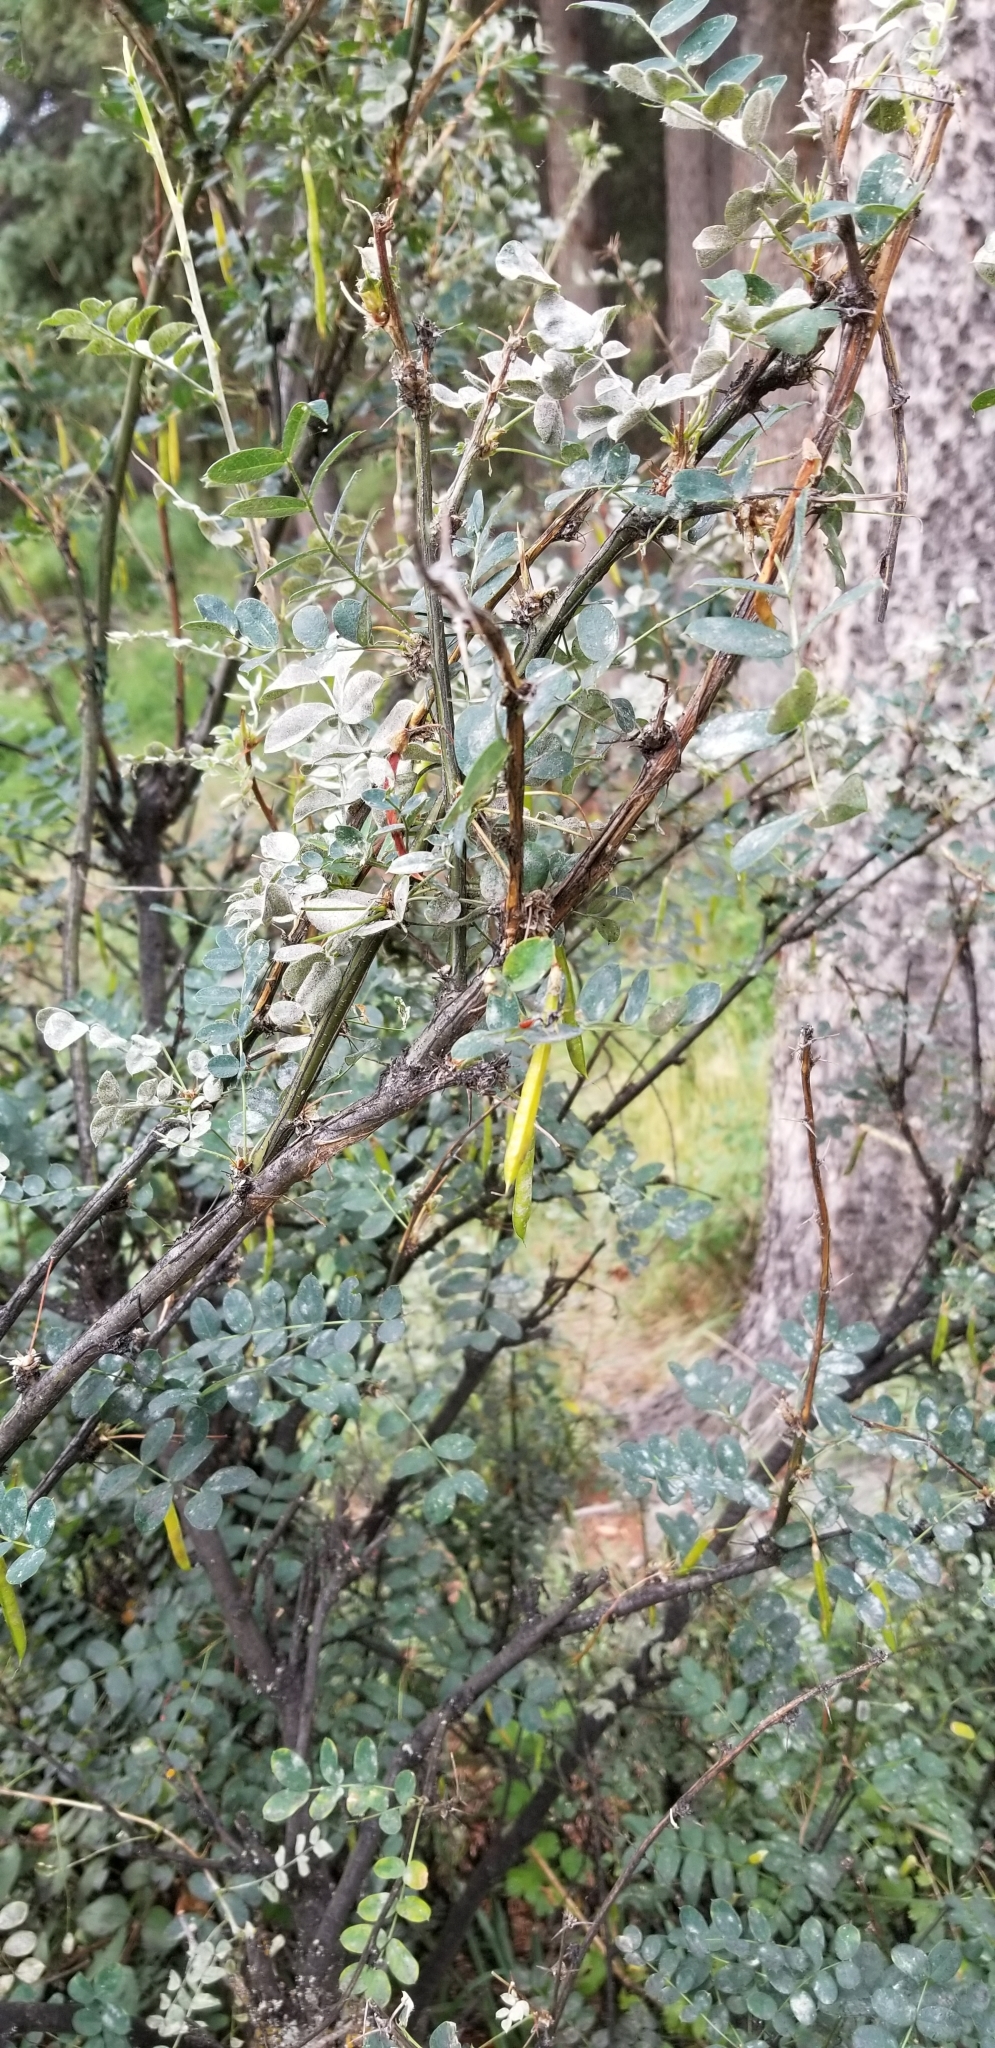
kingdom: Plantae
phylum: Tracheophyta
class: Magnoliopsida
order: Fabales
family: Fabaceae
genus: Caragana
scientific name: Caragana arborescens
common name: Siberian peashrub
